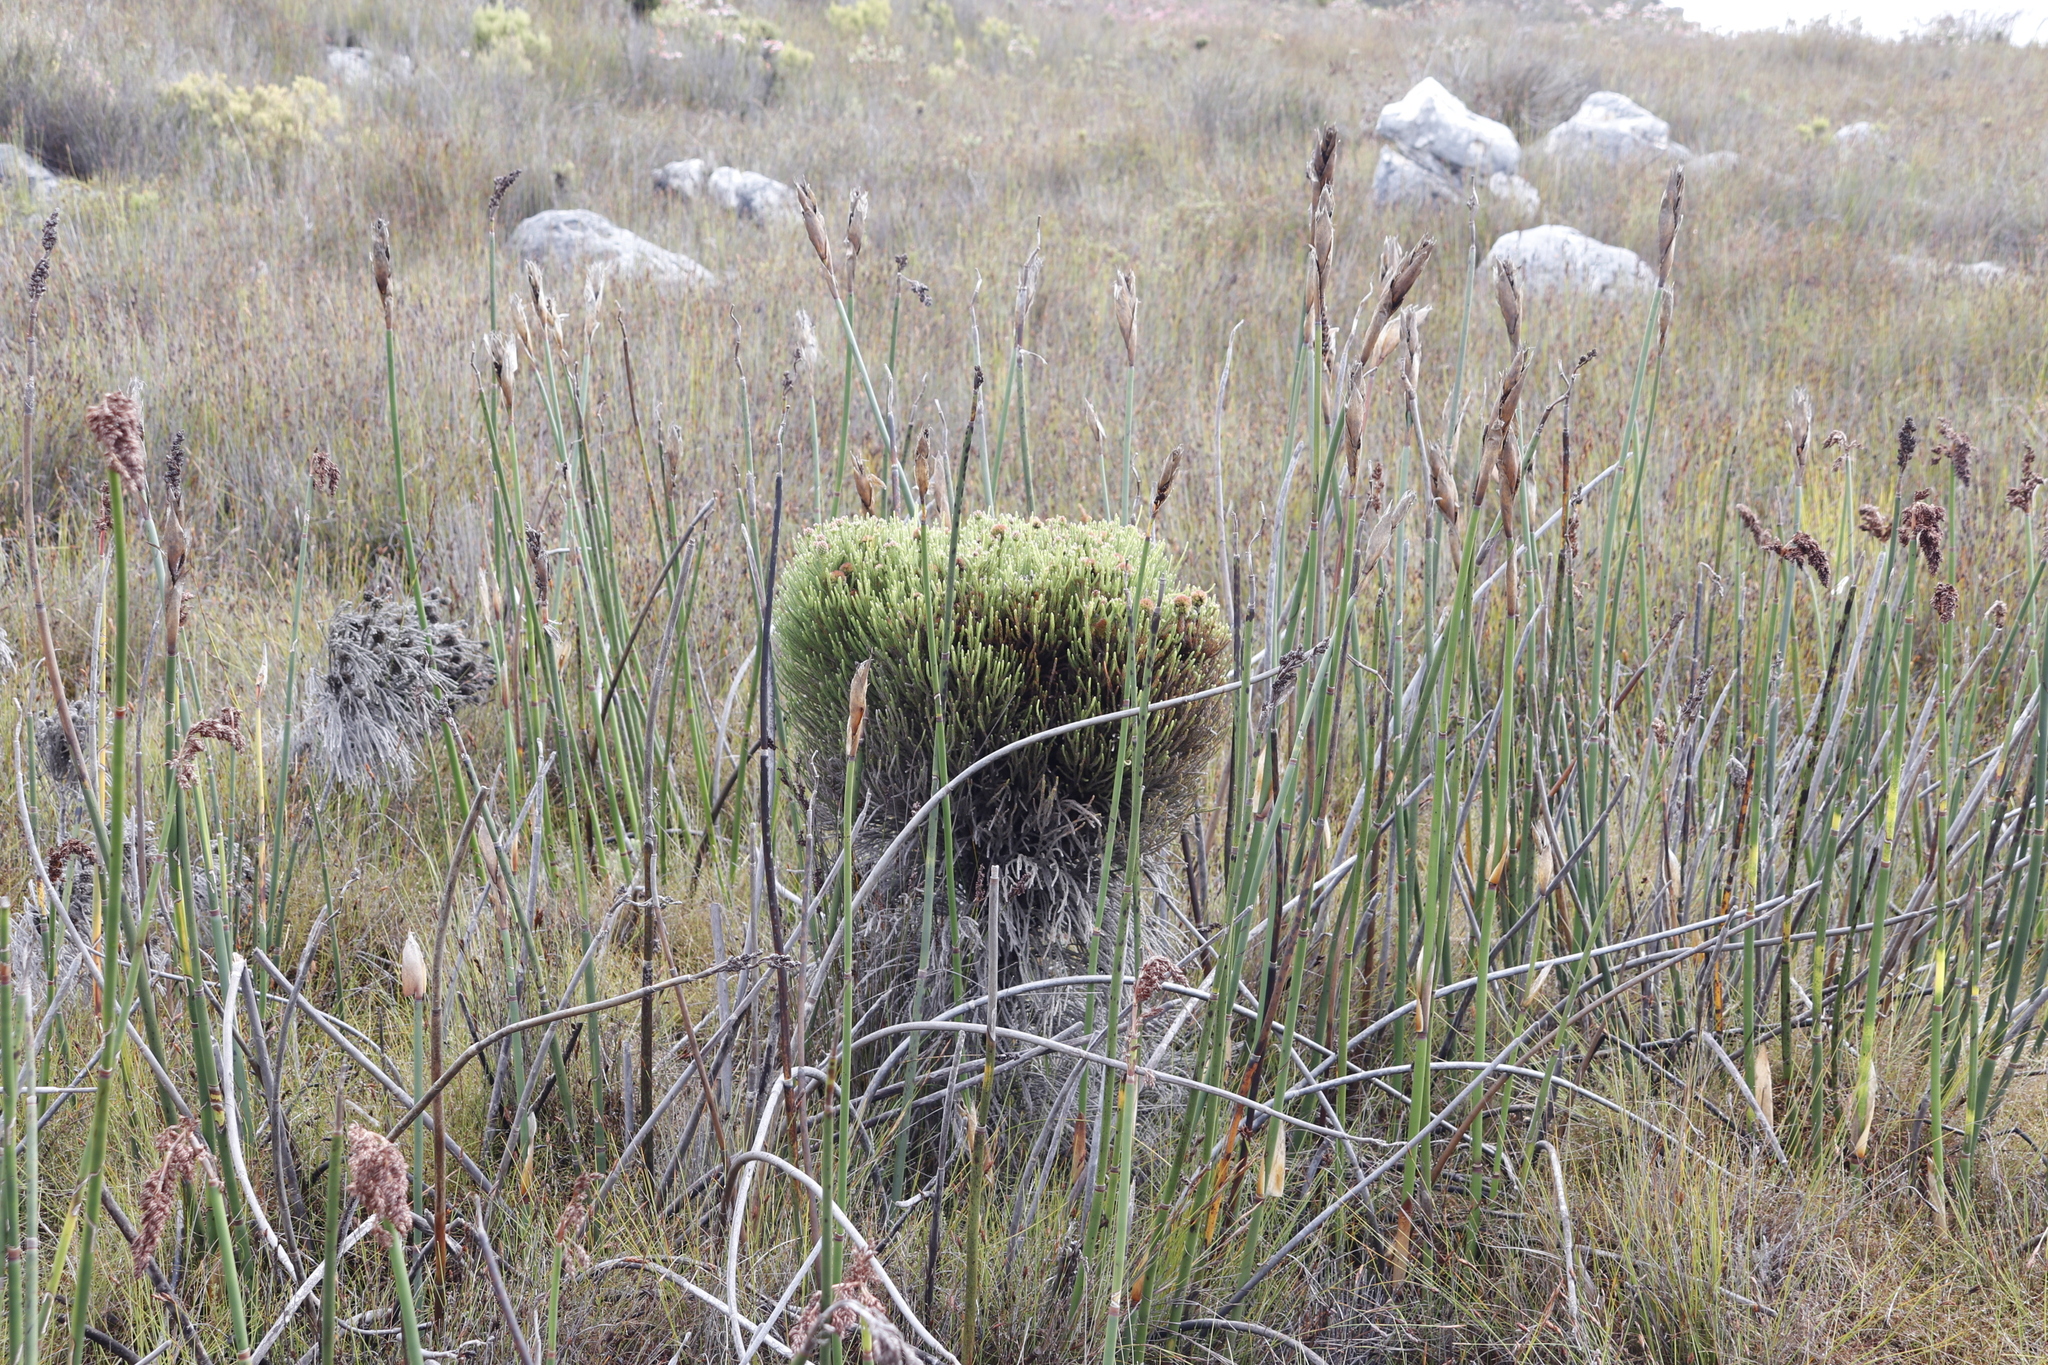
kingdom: Plantae
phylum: Tracheophyta
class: Magnoliopsida
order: Bruniales
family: Bruniaceae
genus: Brunia
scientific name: Brunia fragarioides
